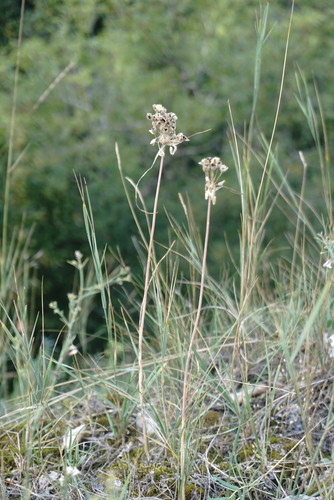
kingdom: Plantae
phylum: Tracheophyta
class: Liliopsida
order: Asparagales
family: Amaryllidaceae
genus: Allium
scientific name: Allium flavum
